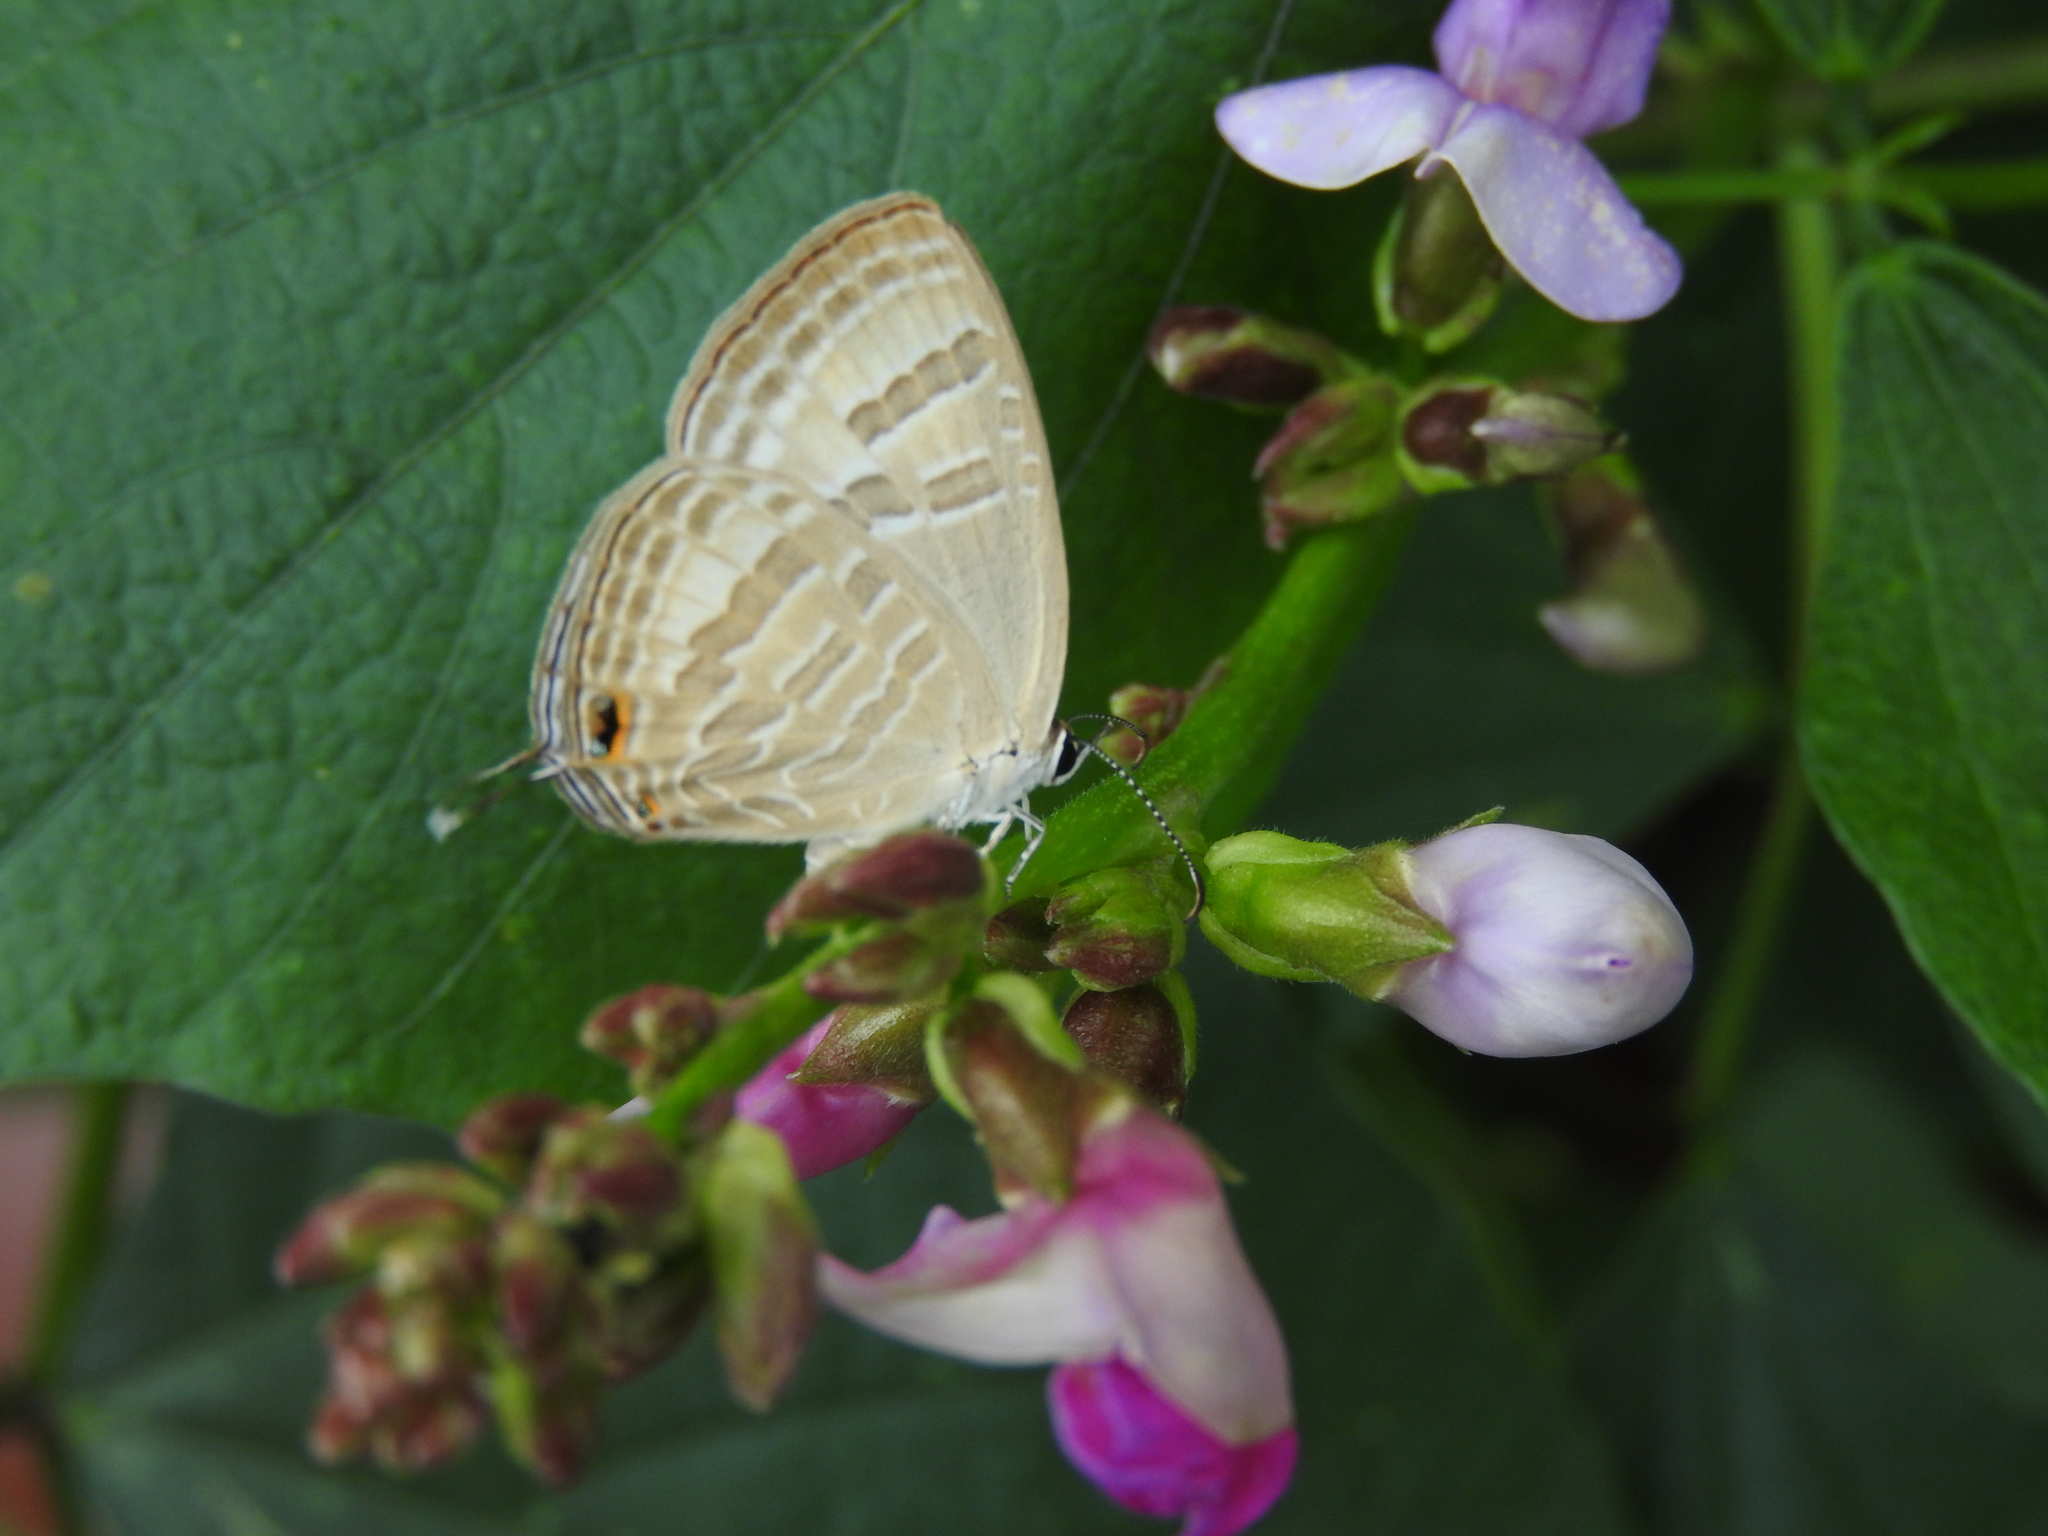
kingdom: Animalia
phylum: Arthropoda
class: Insecta
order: Lepidoptera
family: Lycaenidae
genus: Jamides
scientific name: Jamides celeno
